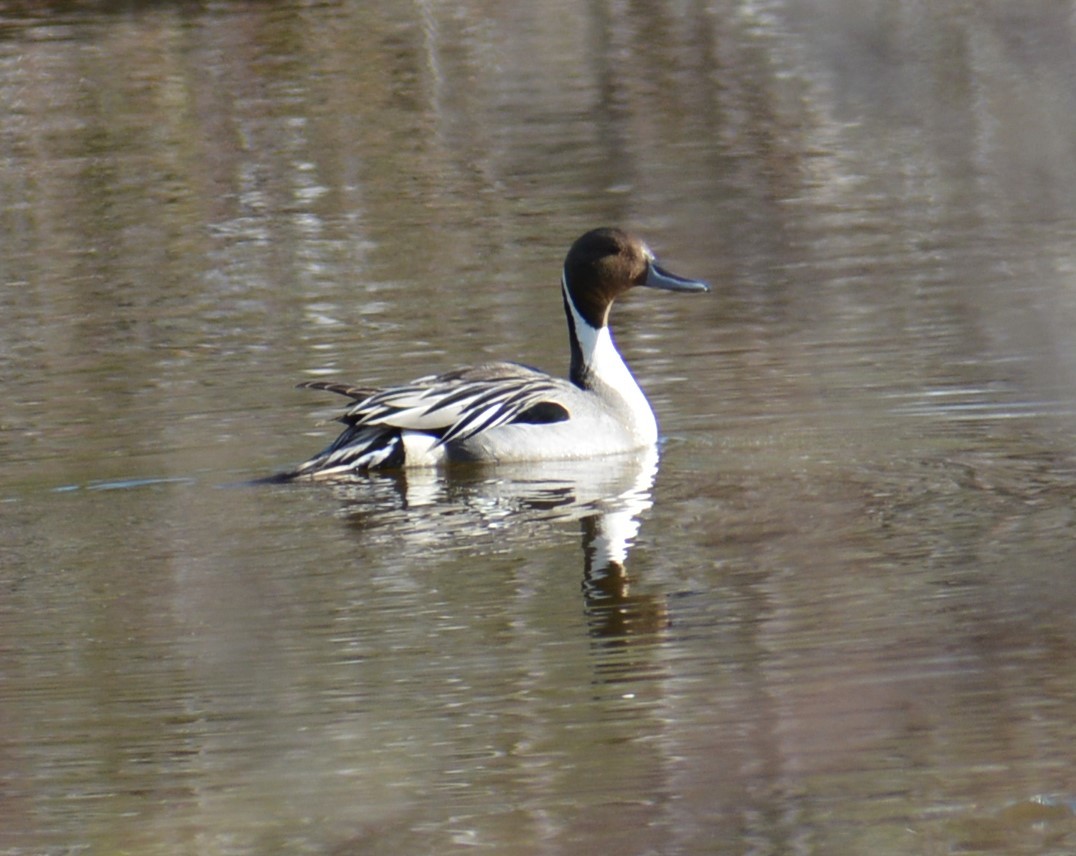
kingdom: Animalia
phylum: Chordata
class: Aves
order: Anseriformes
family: Anatidae
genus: Anas
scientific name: Anas acuta
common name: Northern pintail
